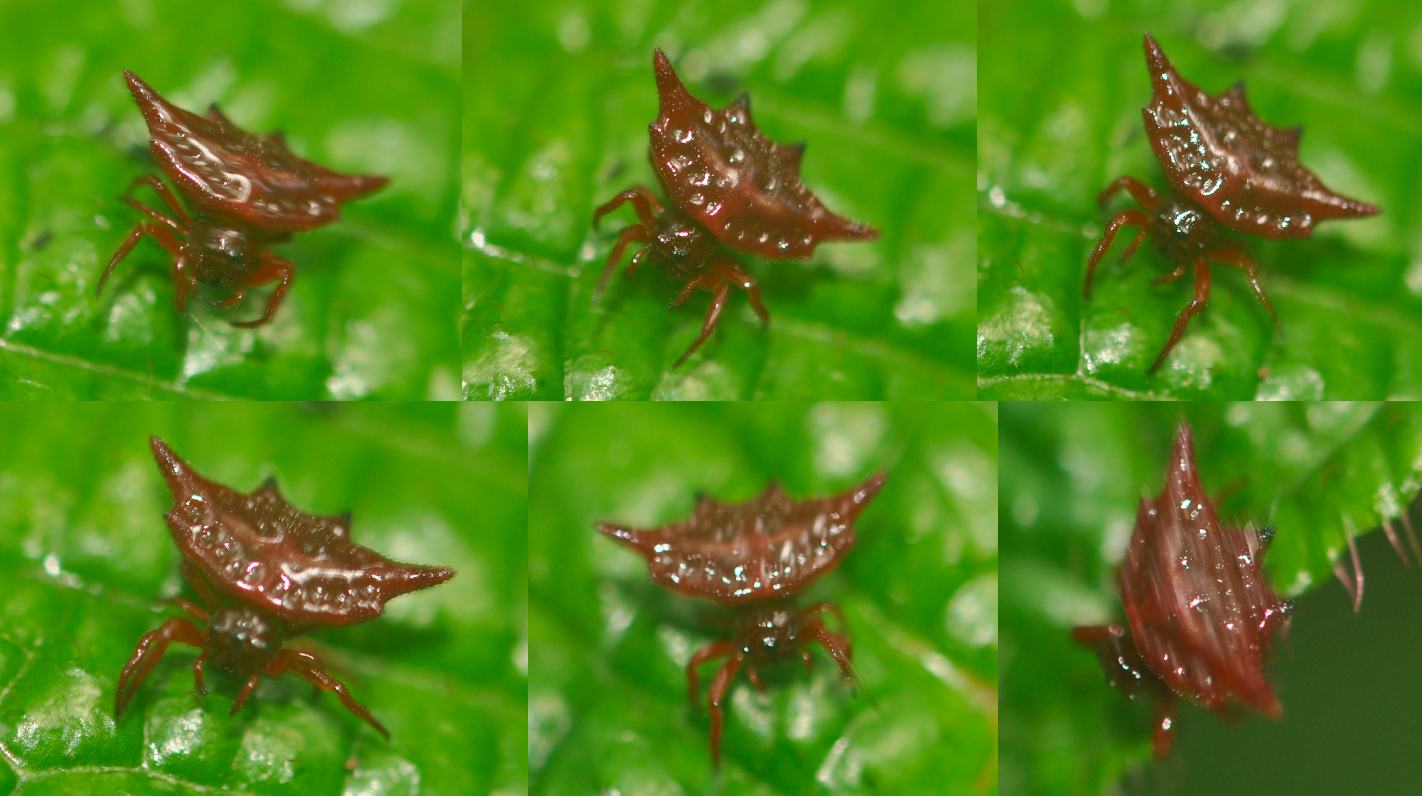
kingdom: Animalia
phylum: Arthropoda
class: Arachnida
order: Araneae
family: Araneidae
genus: Gasteracantha
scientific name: Gasteracantha versicolor
